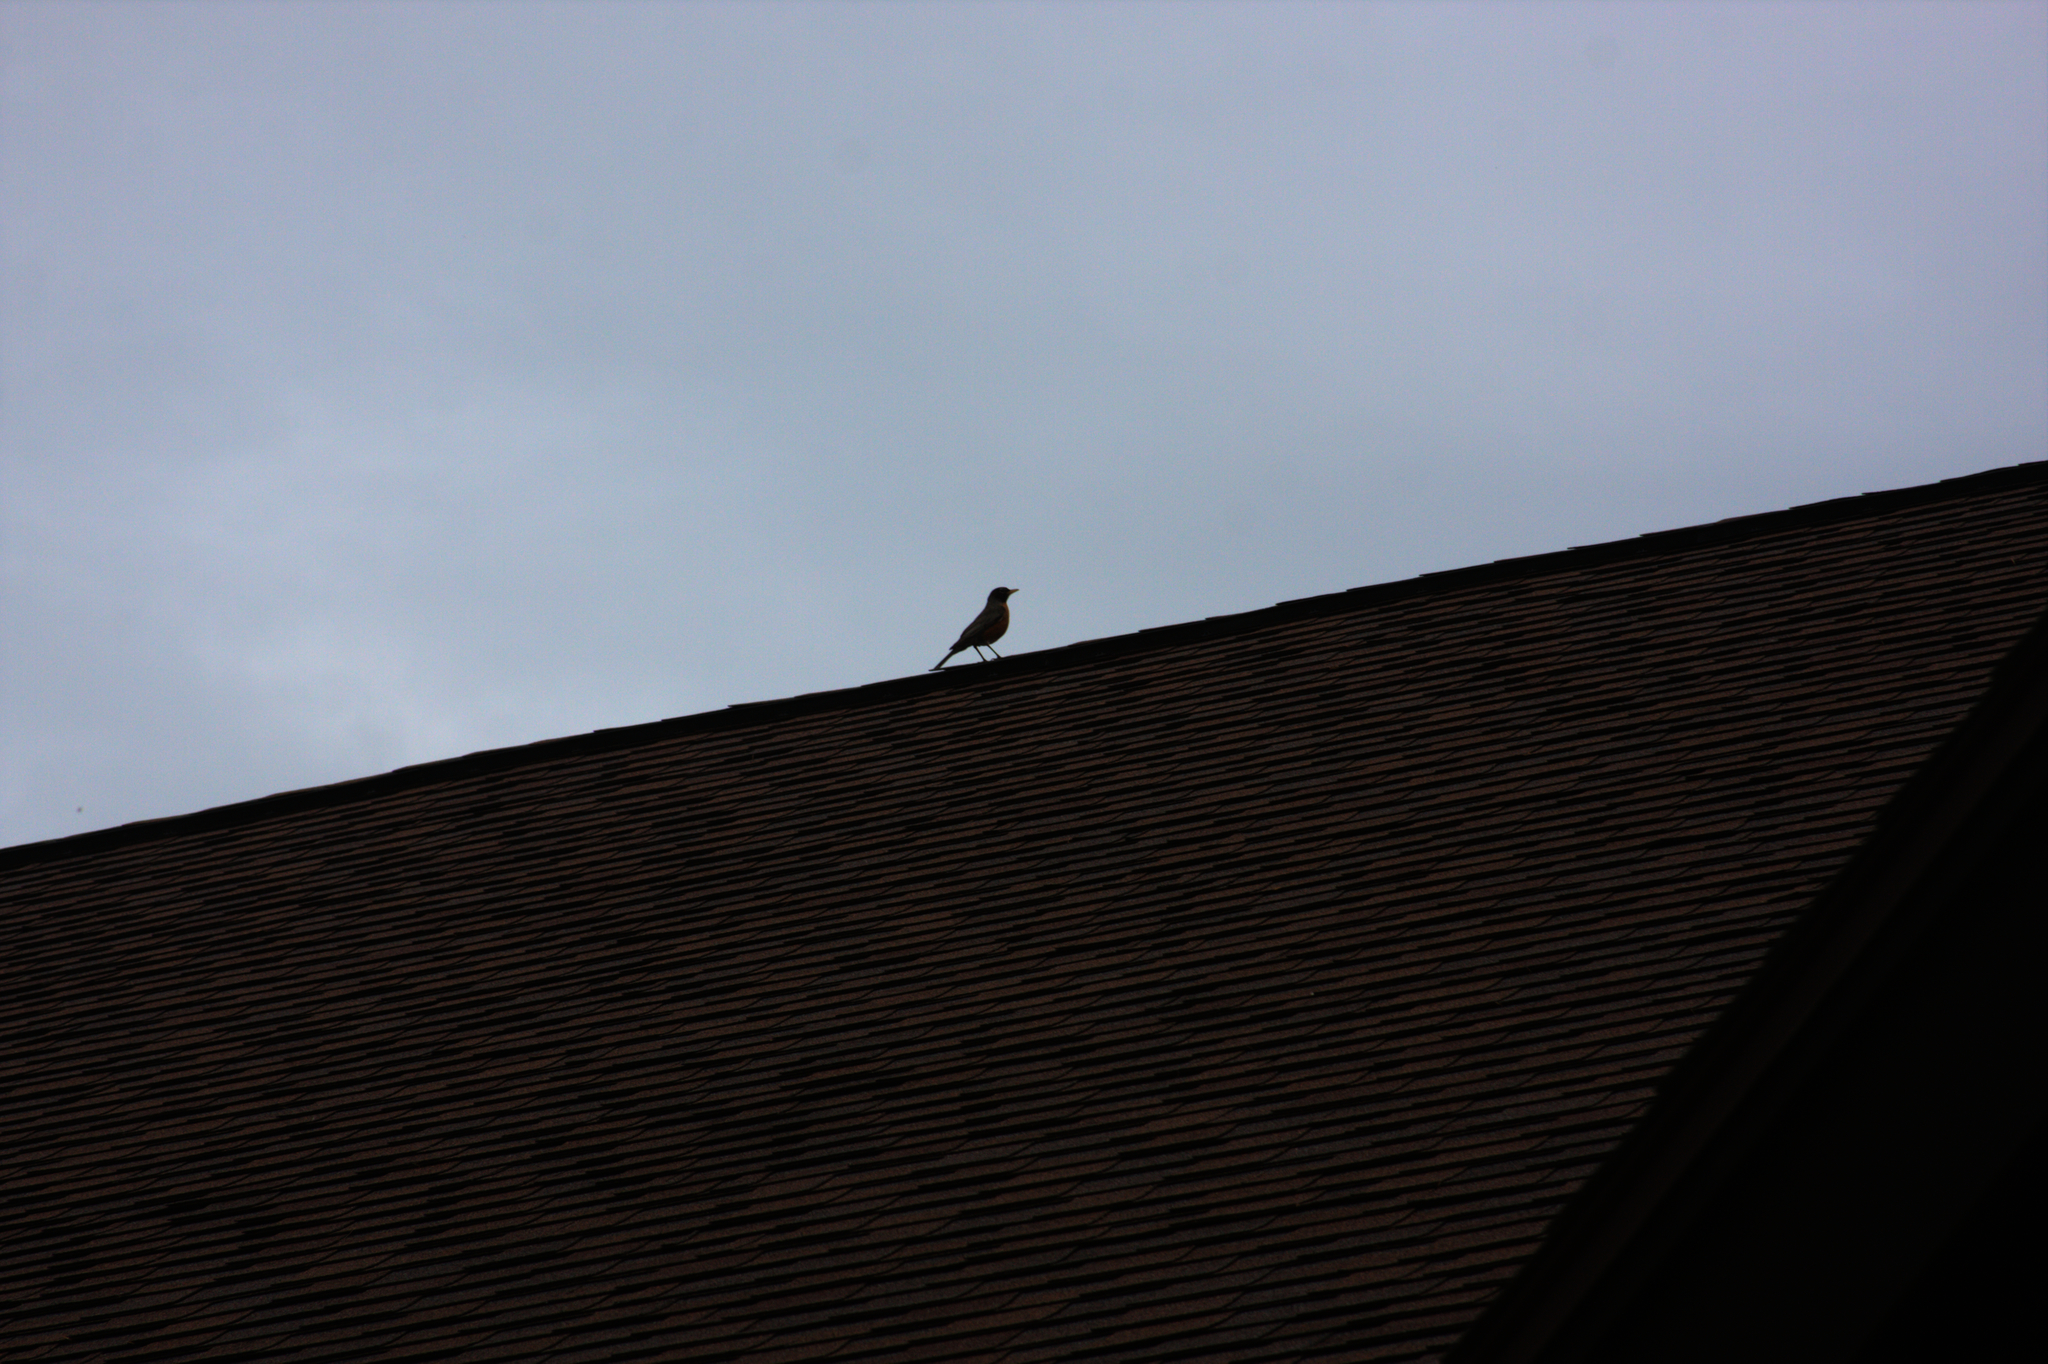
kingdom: Animalia
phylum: Chordata
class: Aves
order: Passeriformes
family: Turdidae
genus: Turdus
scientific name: Turdus migratorius
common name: American robin
